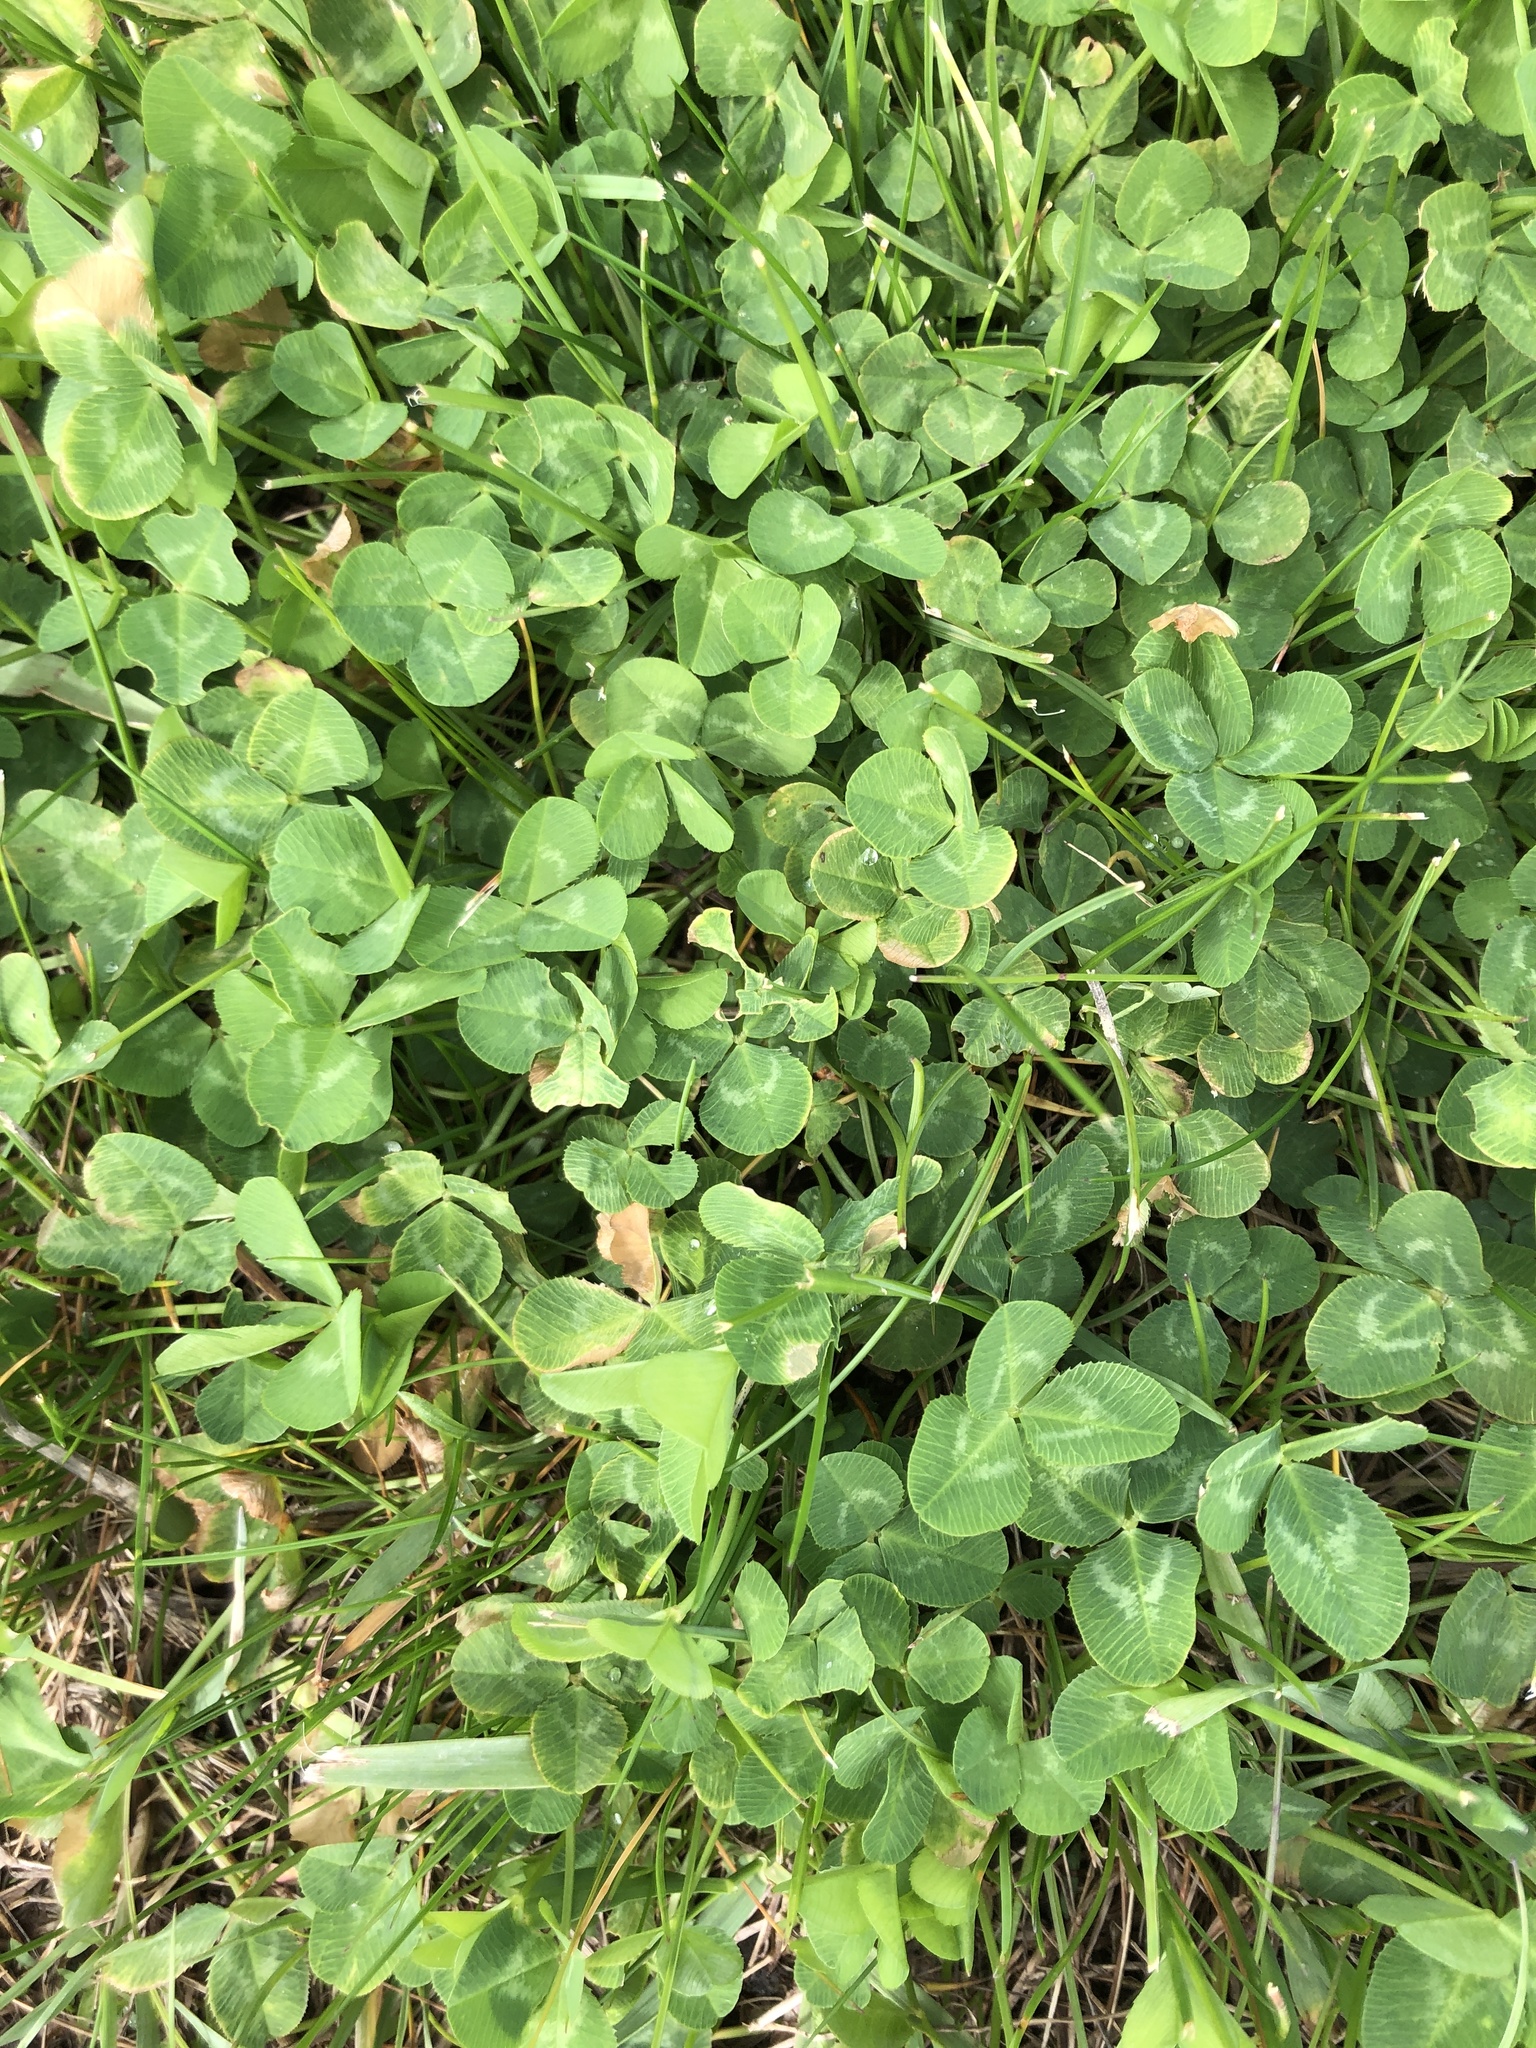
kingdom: Plantae
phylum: Tracheophyta
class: Magnoliopsida
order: Fabales
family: Fabaceae
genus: Trifolium
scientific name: Trifolium repens
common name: White clover
